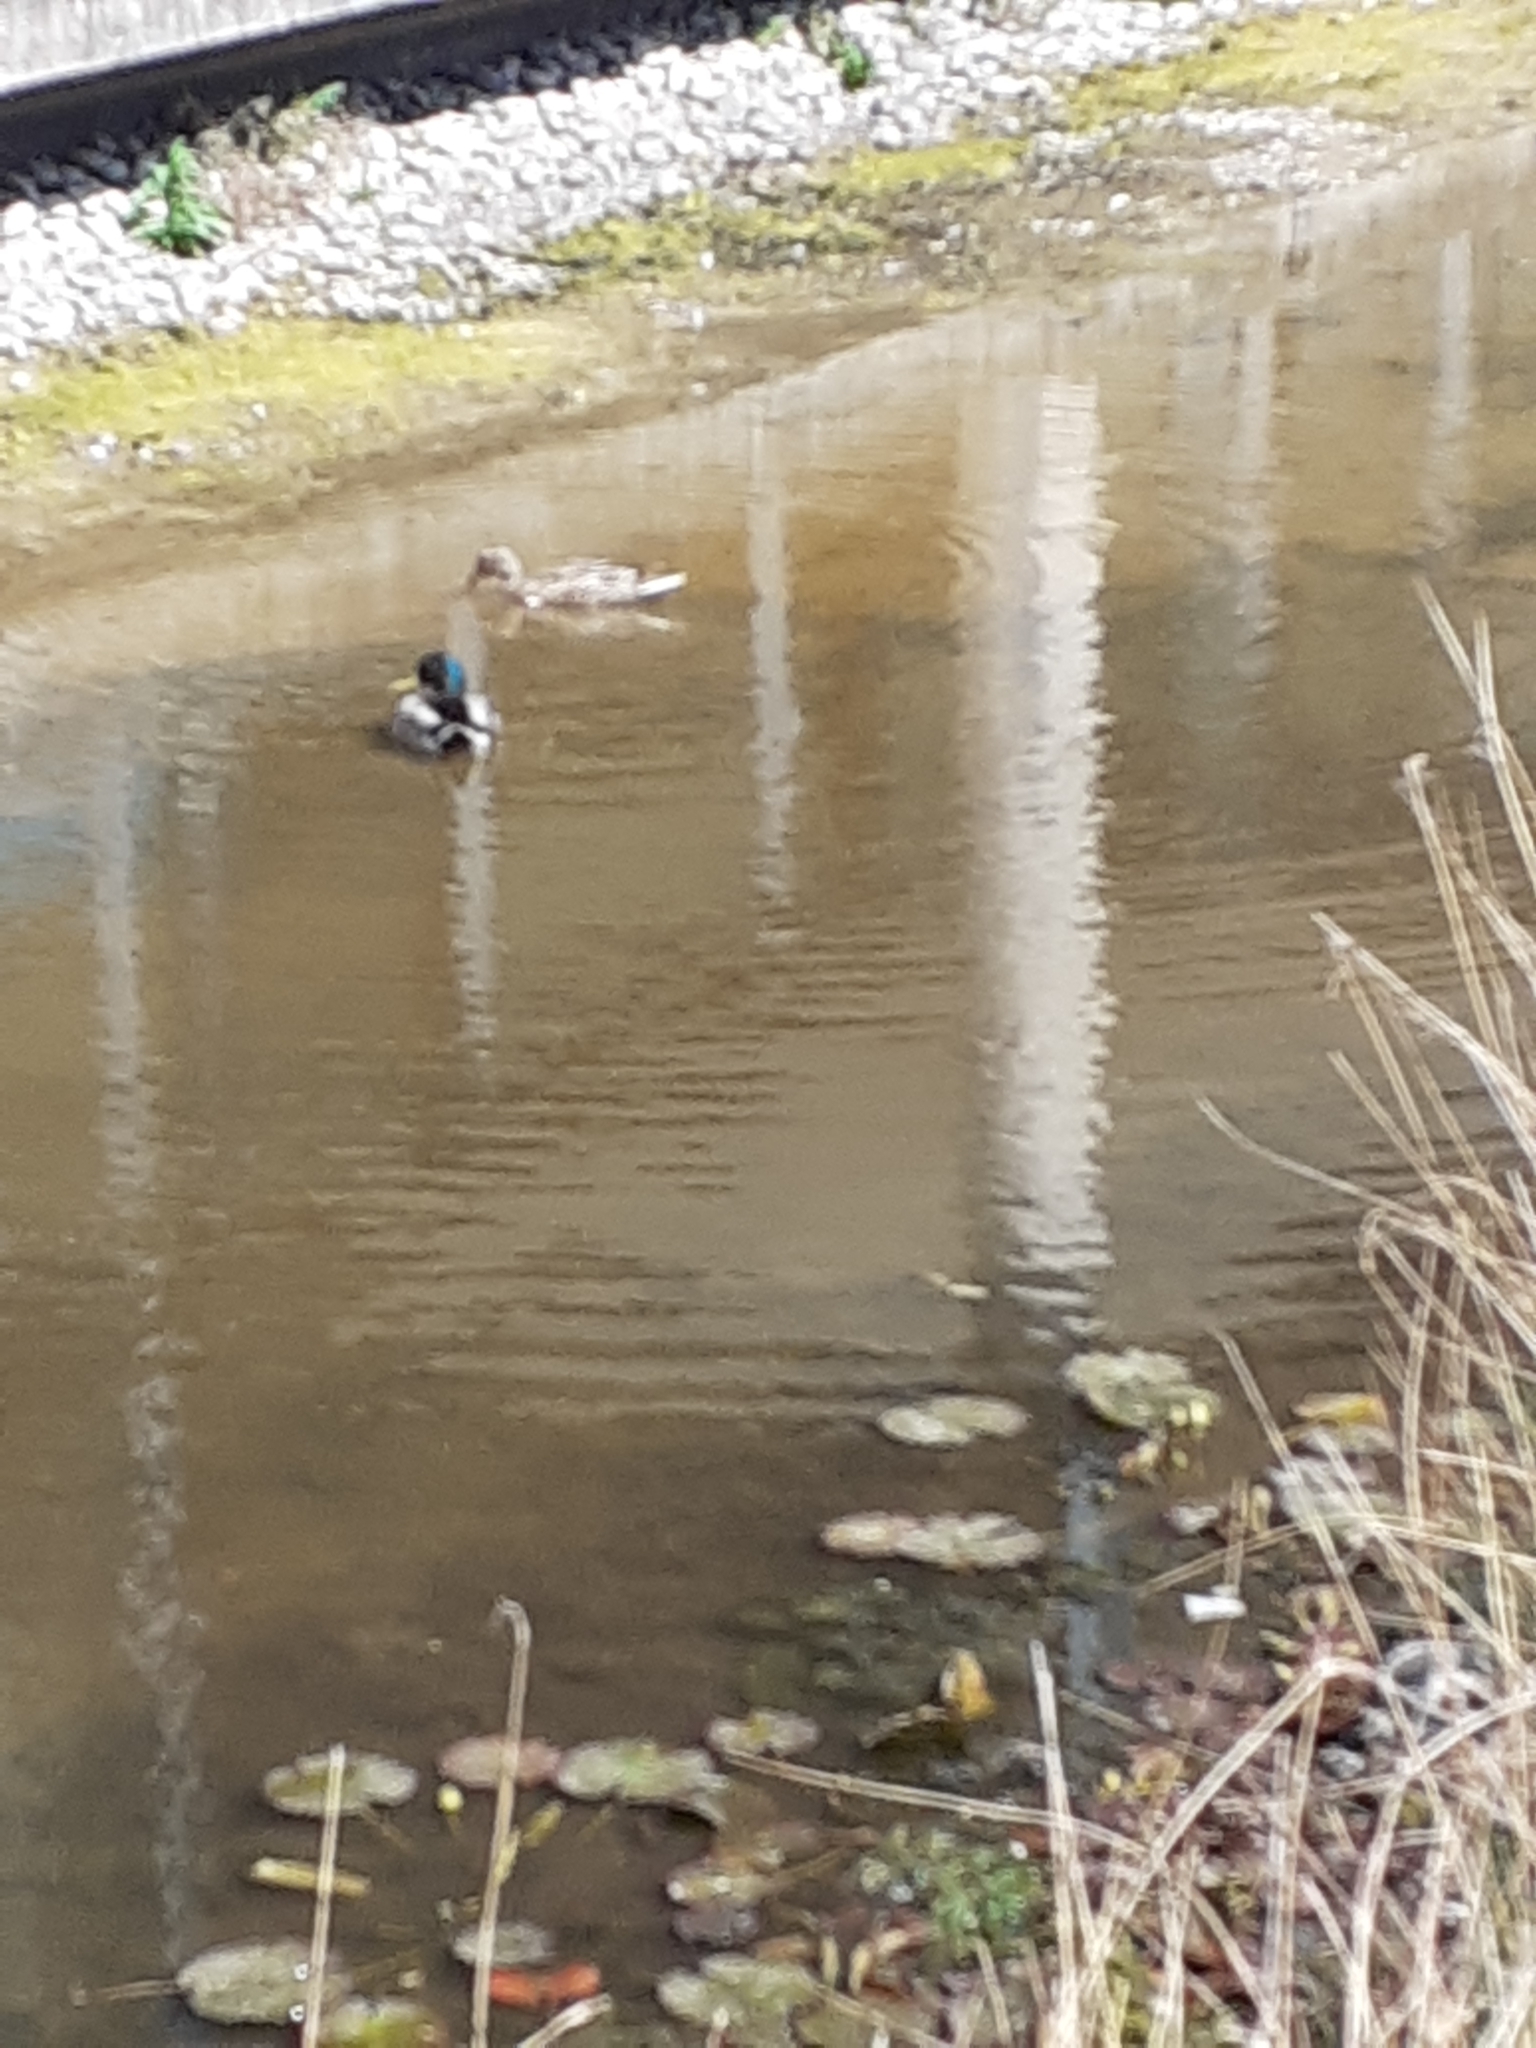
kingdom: Animalia
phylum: Chordata
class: Aves
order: Anseriformes
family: Anatidae
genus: Anas
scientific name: Anas platyrhynchos
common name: Mallard
